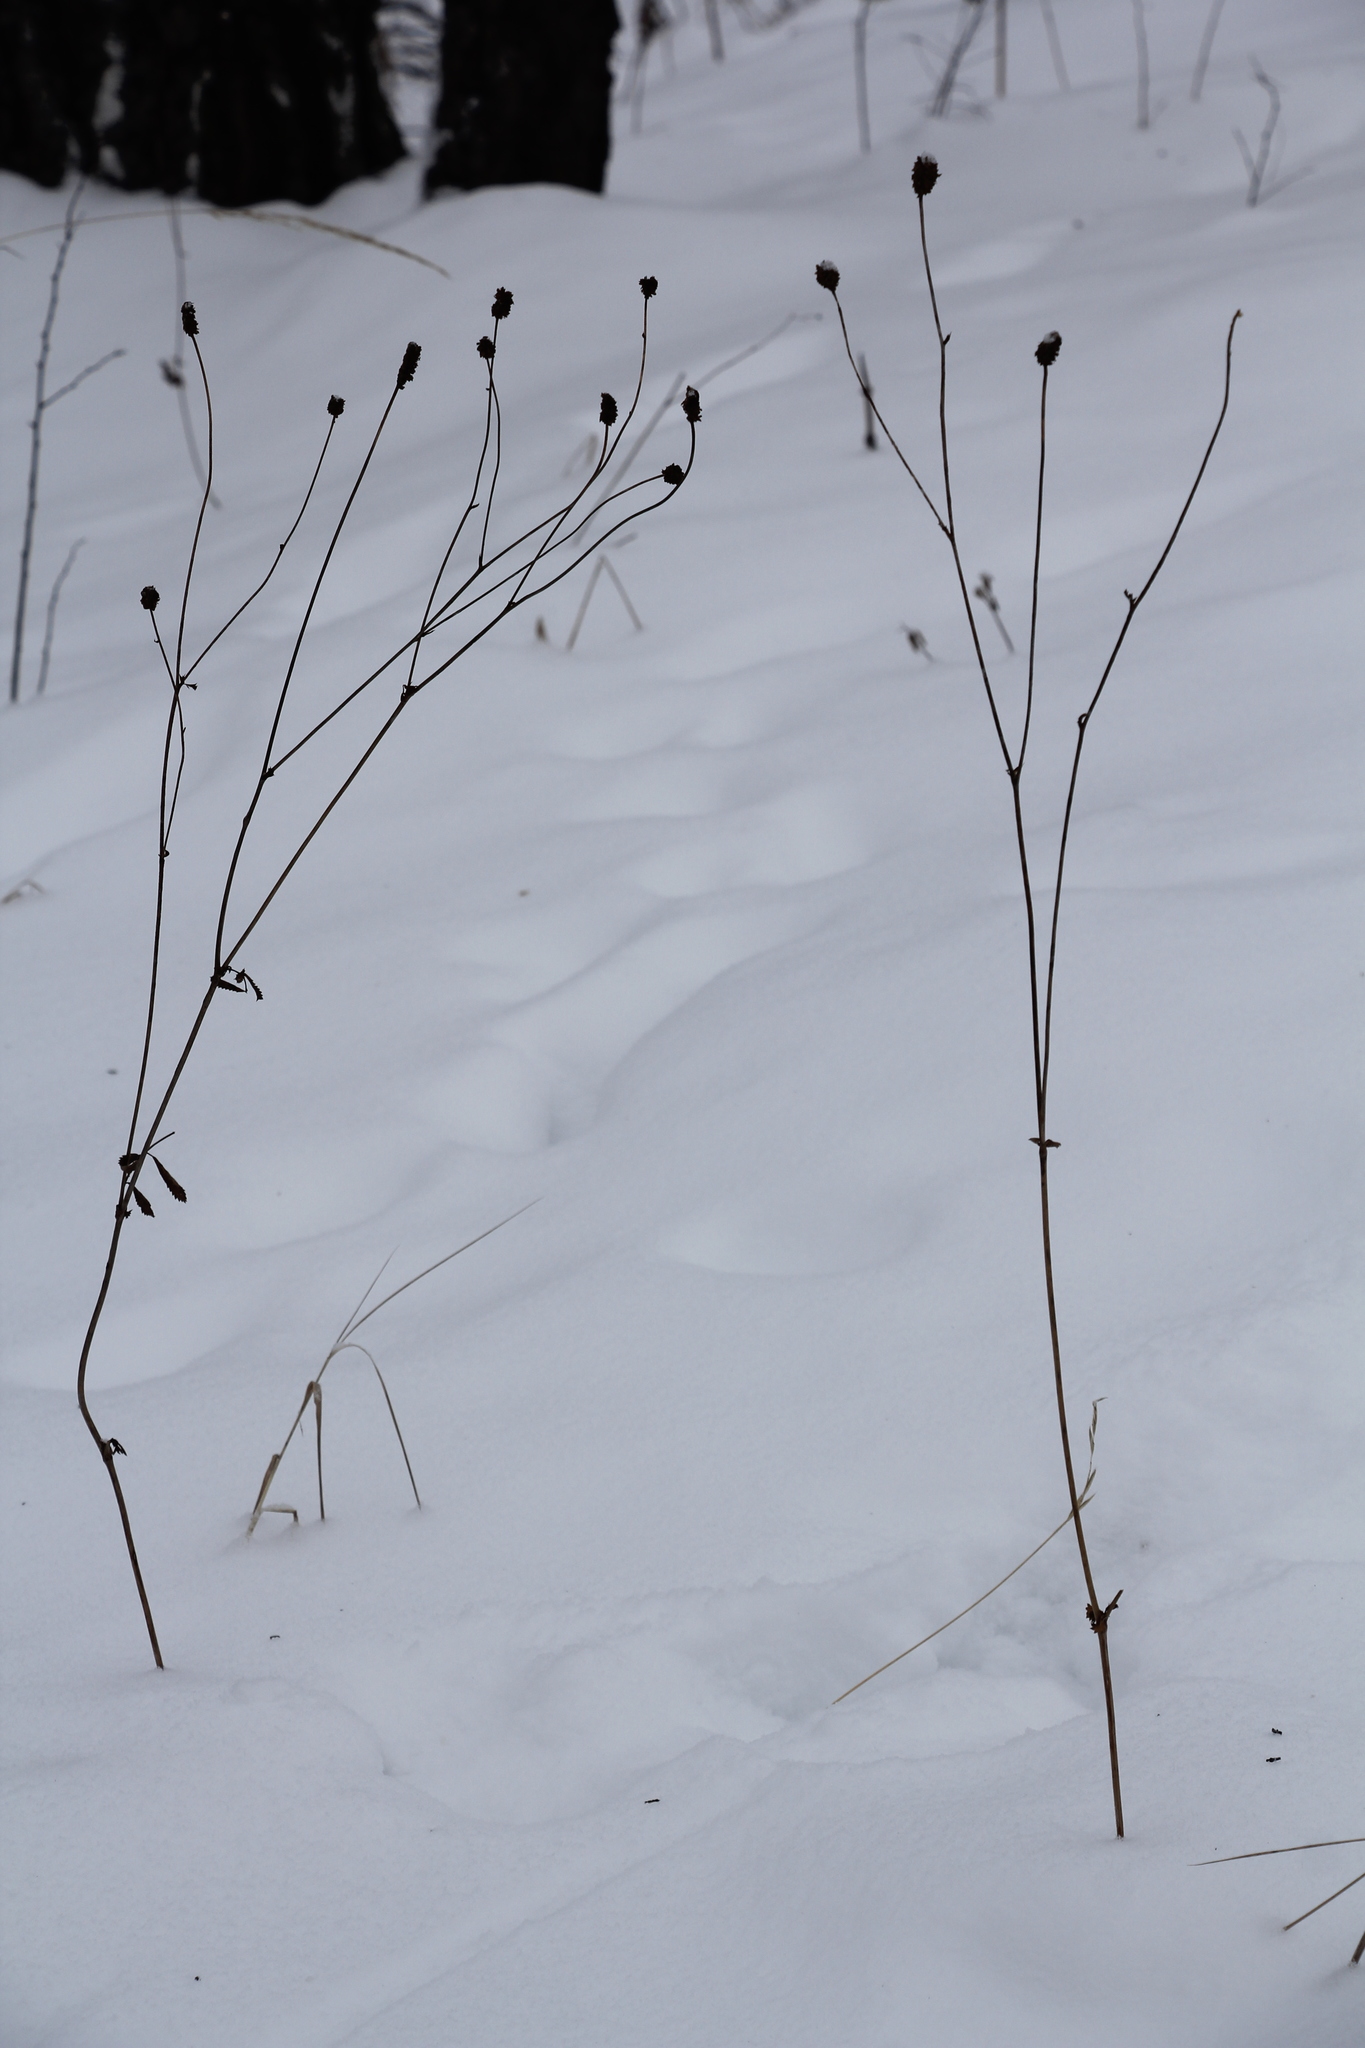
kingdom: Plantae
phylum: Tracheophyta
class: Magnoliopsida
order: Rosales
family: Rosaceae
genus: Sanguisorba
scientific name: Sanguisorba officinalis
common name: Great burnet
